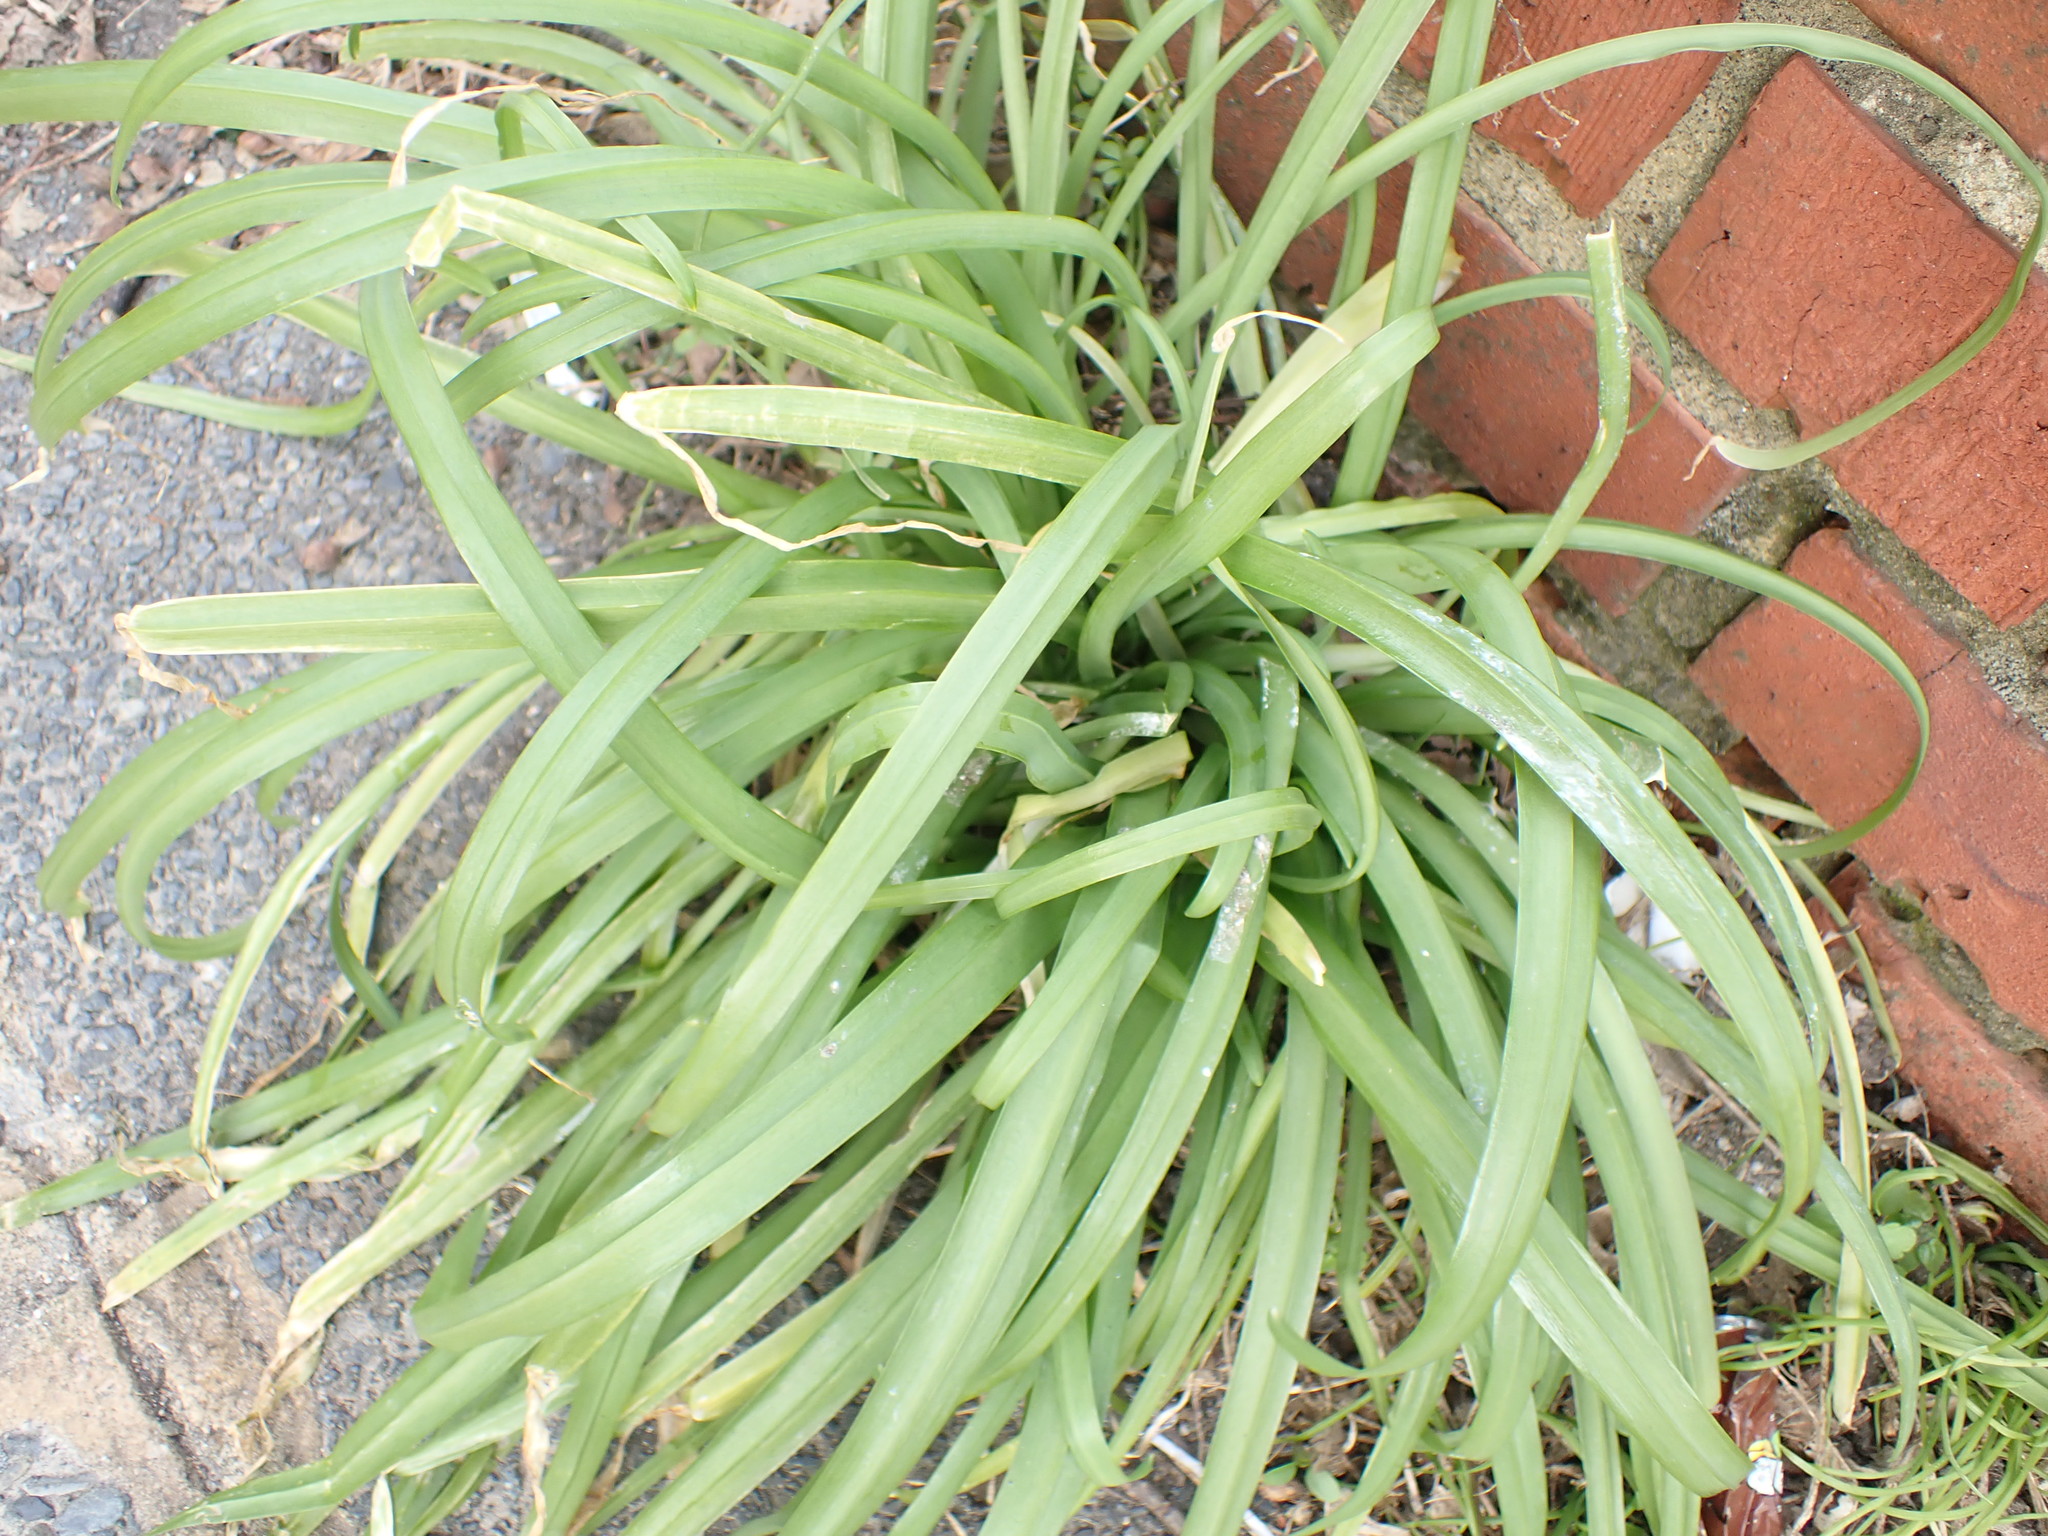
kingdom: Plantae
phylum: Tracheophyta
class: Liliopsida
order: Asparagales
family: Amaryllidaceae
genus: Allium
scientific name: Allium triquetrum
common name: Three-cornered garlic
